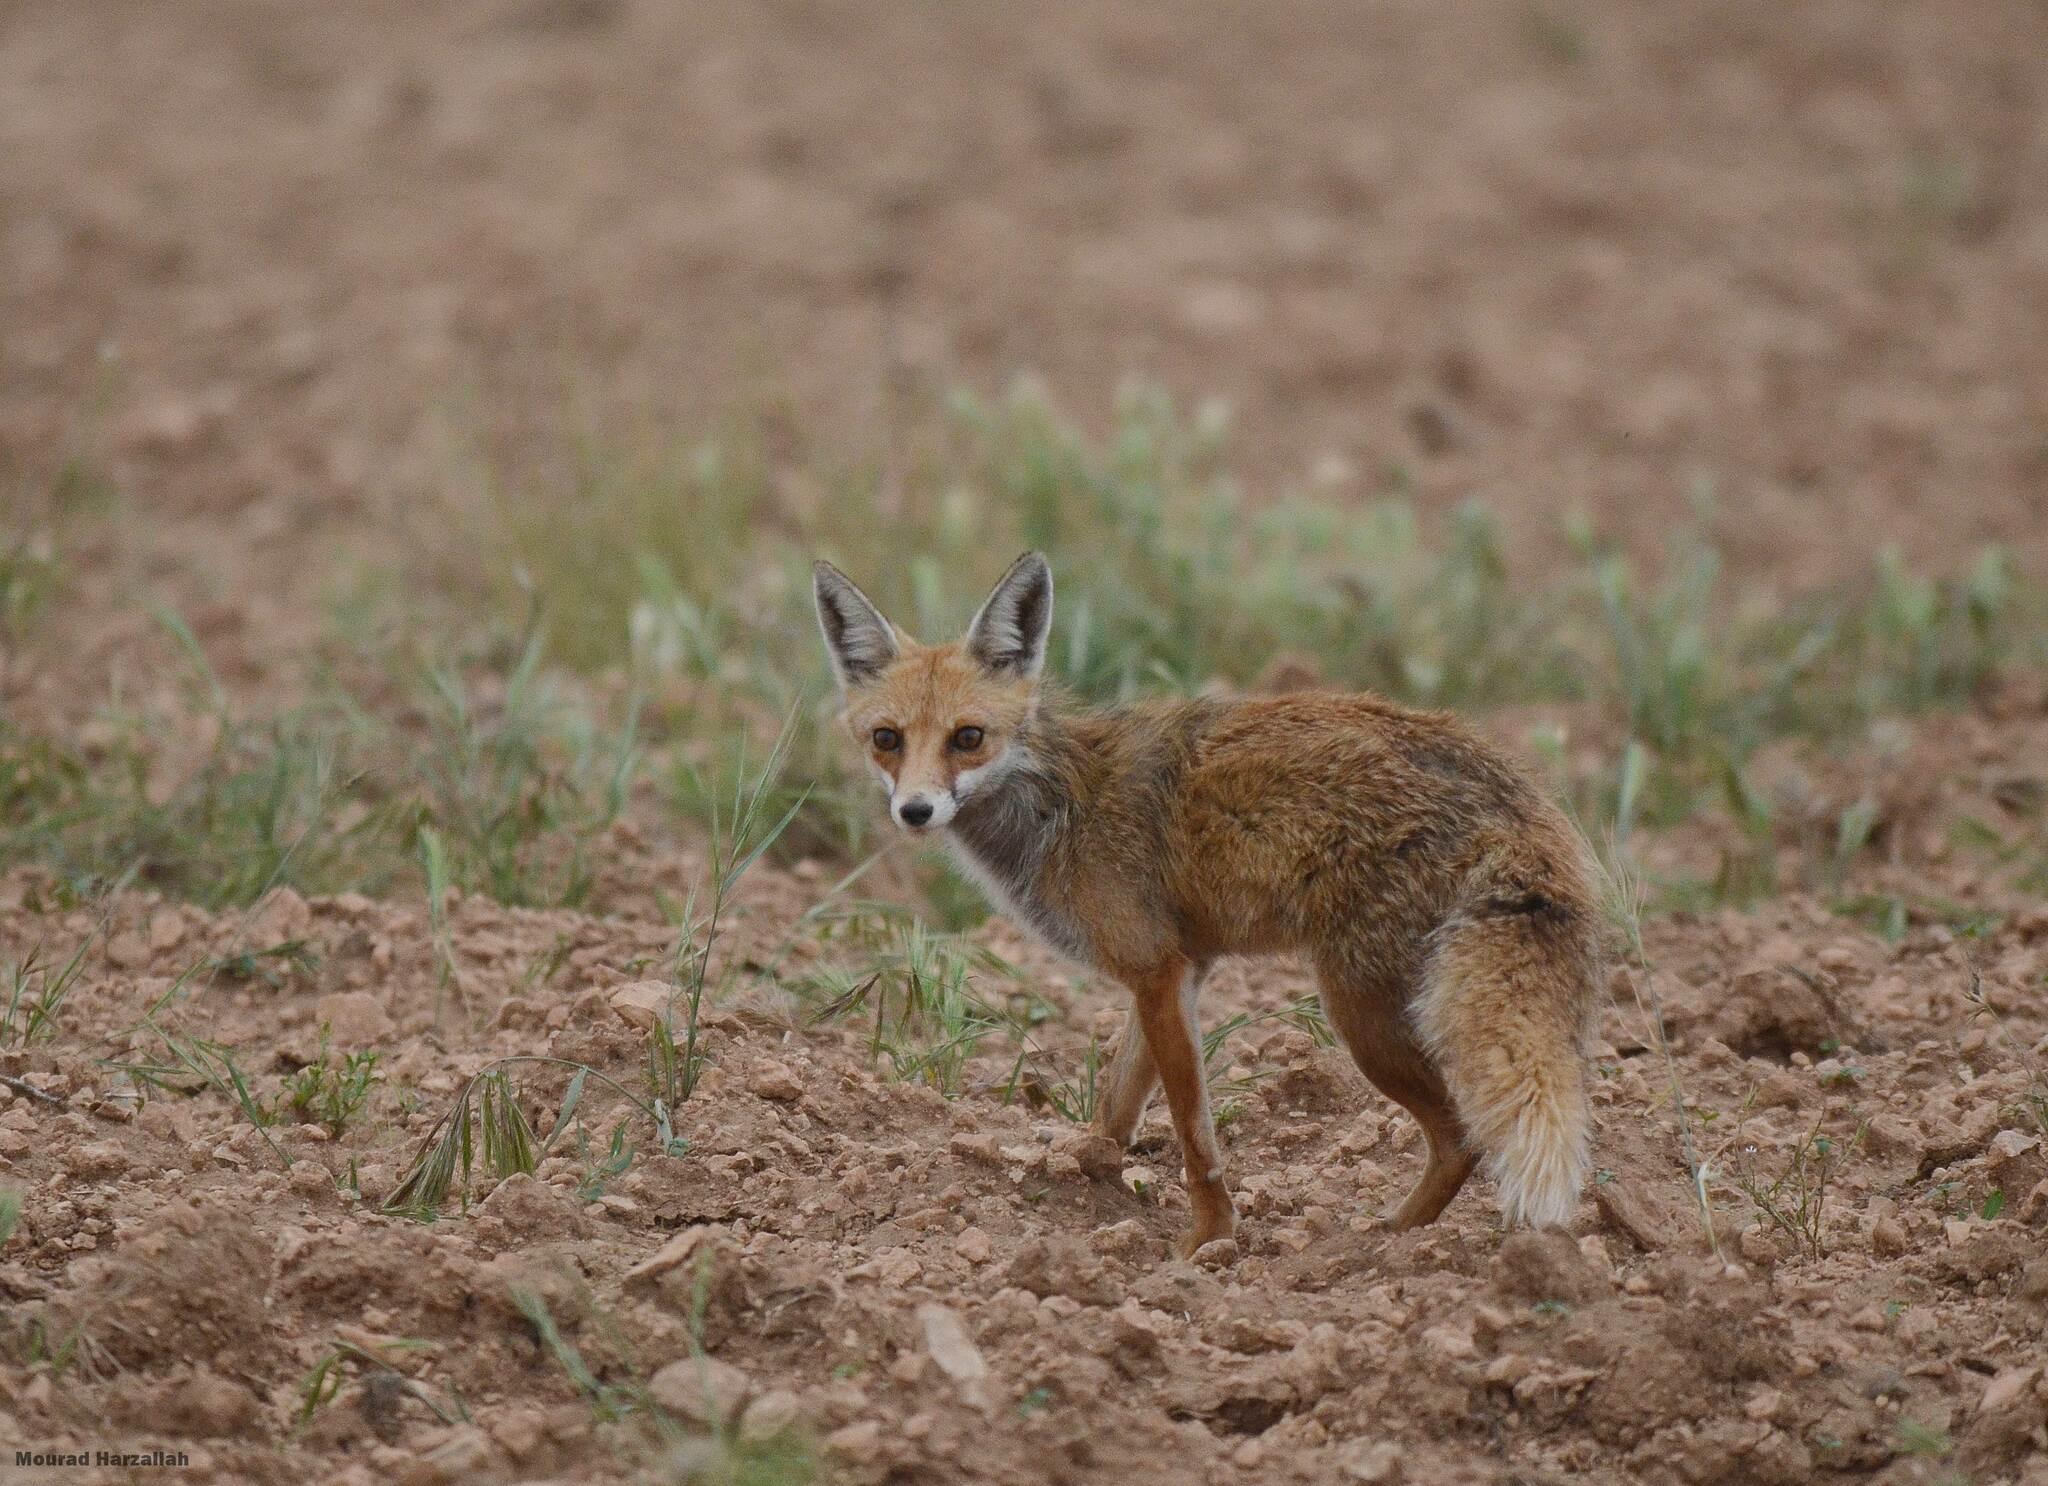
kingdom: Animalia
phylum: Chordata
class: Mammalia
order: Carnivora
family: Canidae
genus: Vulpes
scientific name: Vulpes vulpes
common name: Red fox
